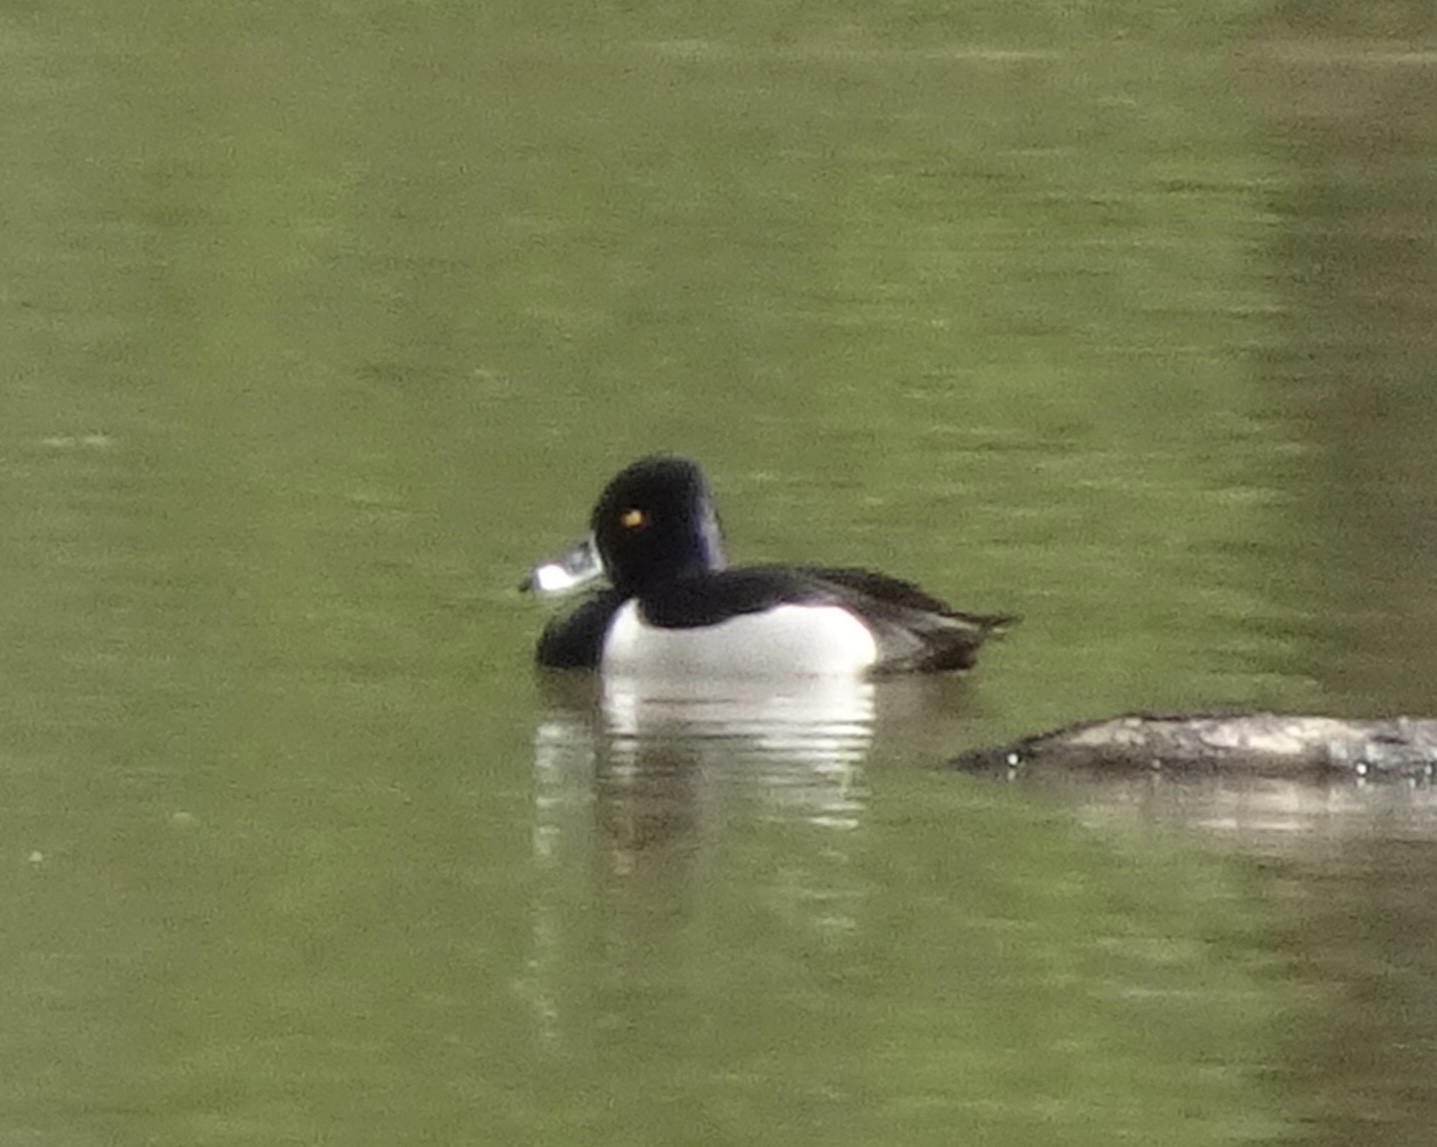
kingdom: Animalia
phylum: Chordata
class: Aves
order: Anseriformes
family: Anatidae
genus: Aythya
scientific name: Aythya collaris
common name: Ring-necked duck
